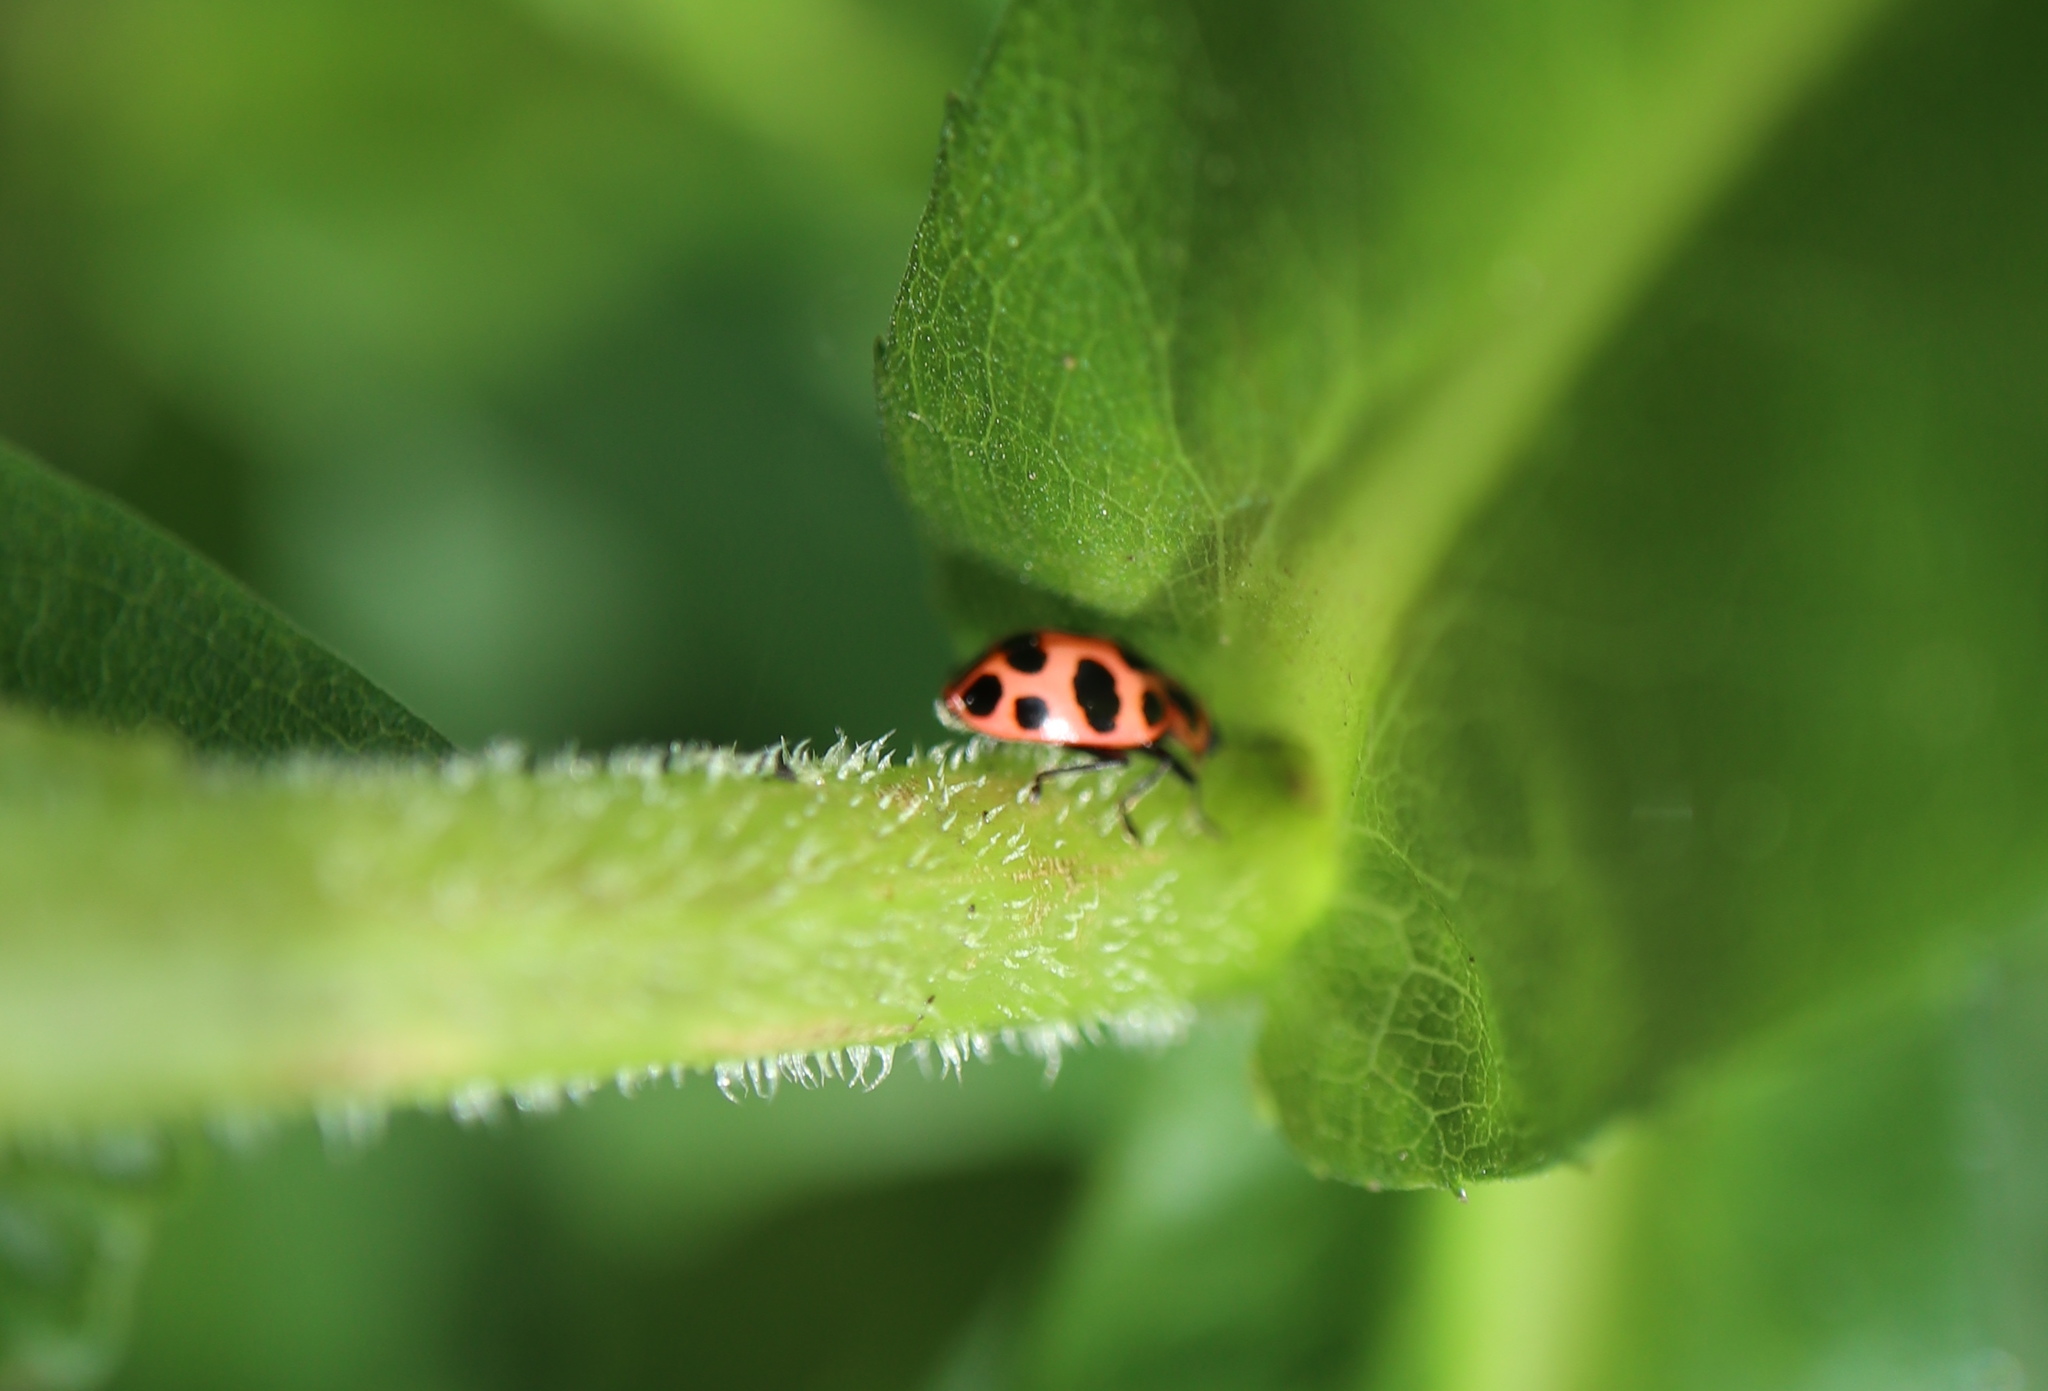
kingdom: Animalia
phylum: Arthropoda
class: Insecta
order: Coleoptera
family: Coccinellidae
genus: Coleomegilla
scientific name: Coleomegilla maculata
